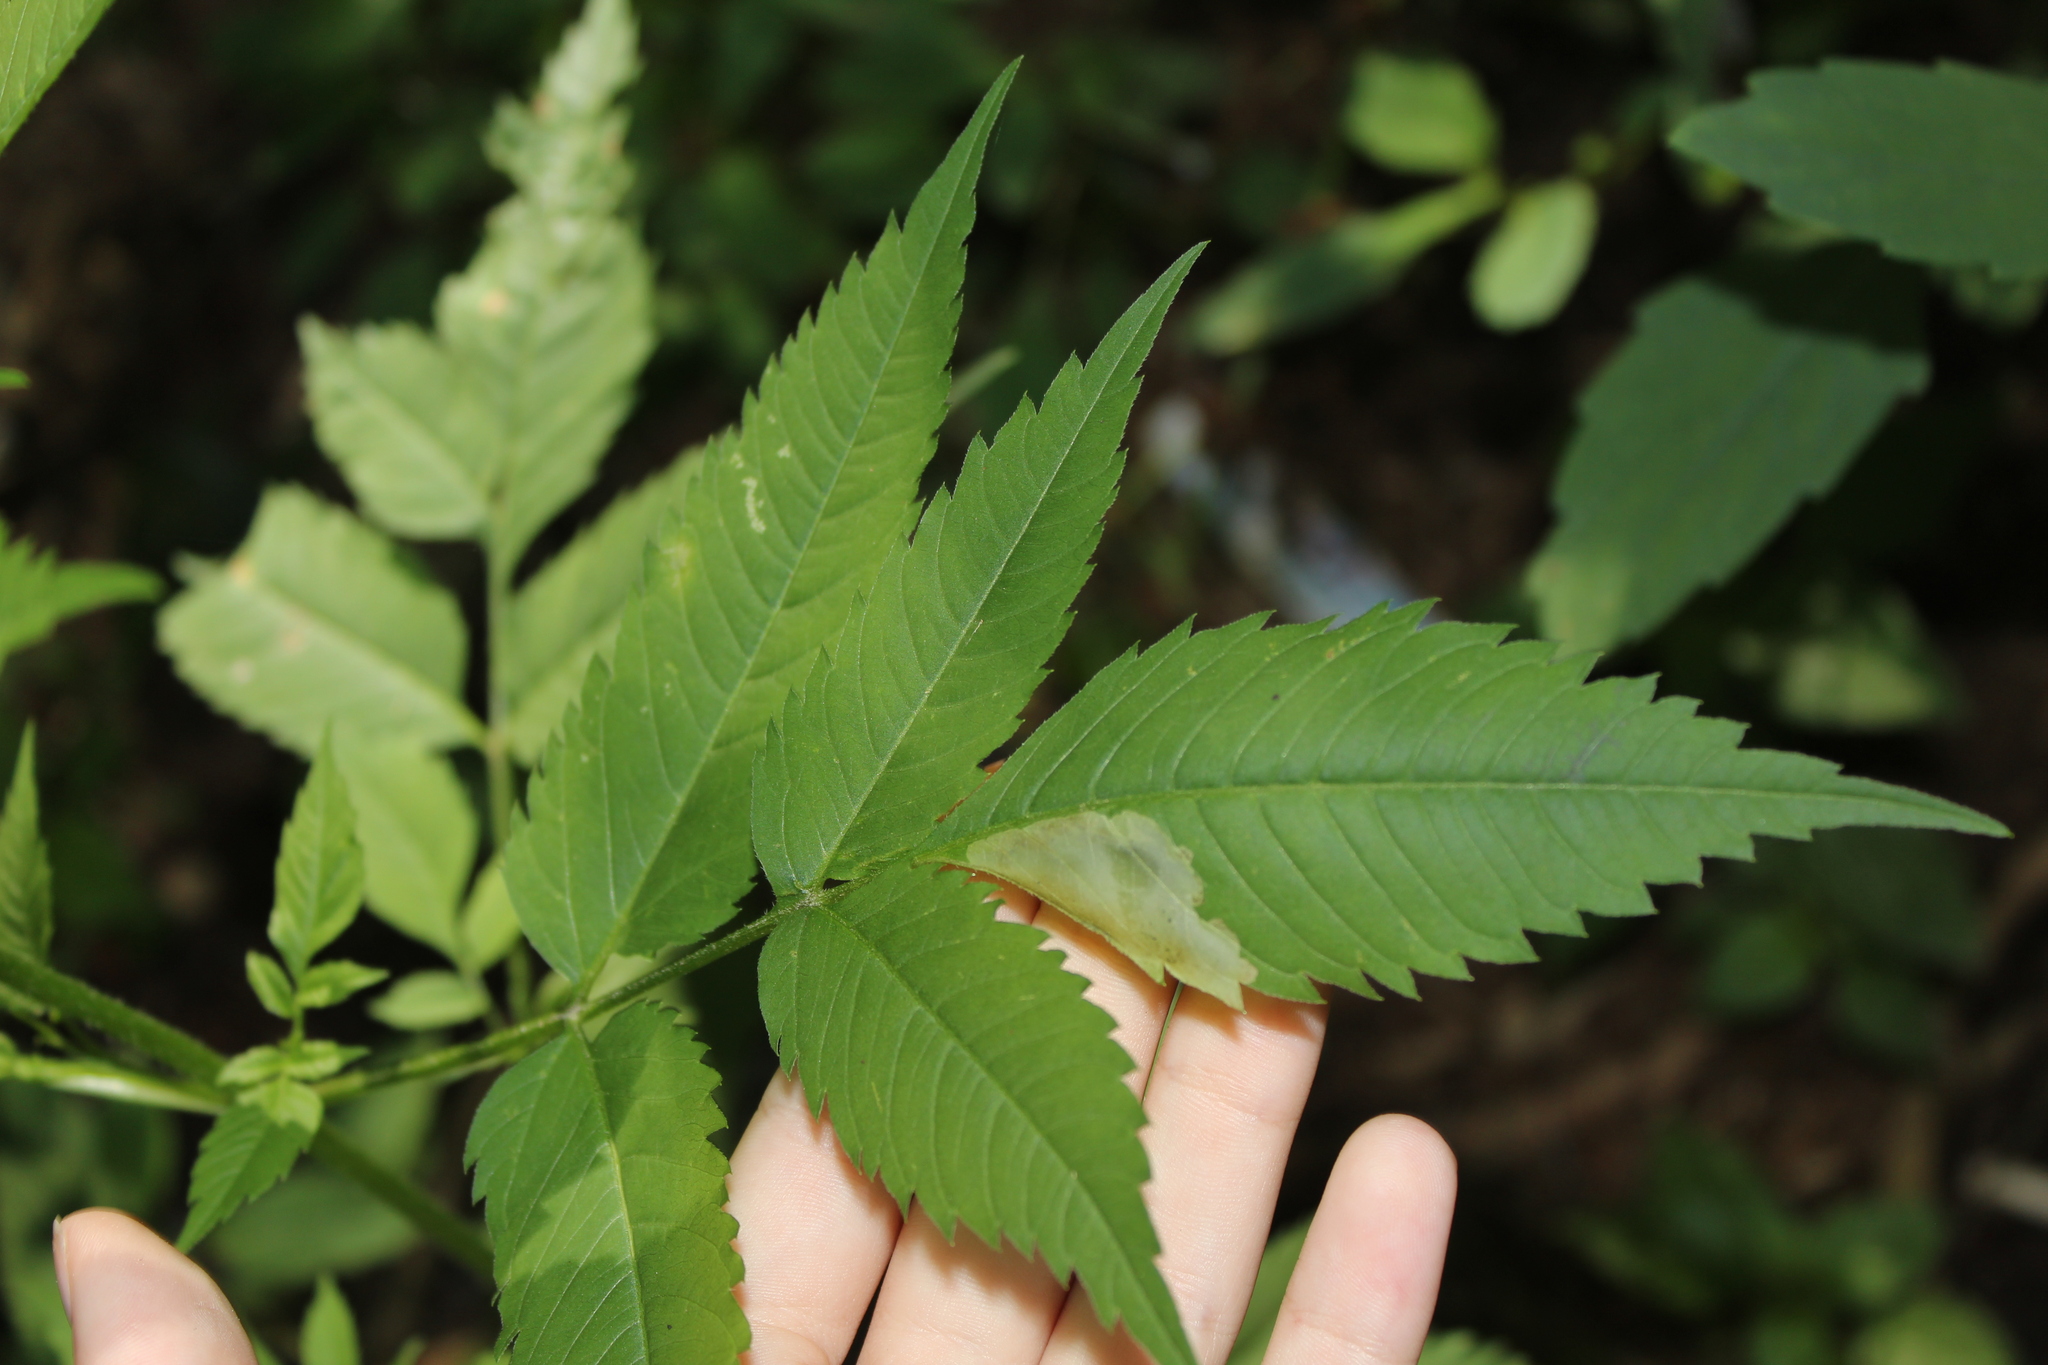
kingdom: Animalia
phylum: Arthropoda
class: Insecta
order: Diptera
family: Agromyzidae
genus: Calycomyza
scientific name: Calycomyza
